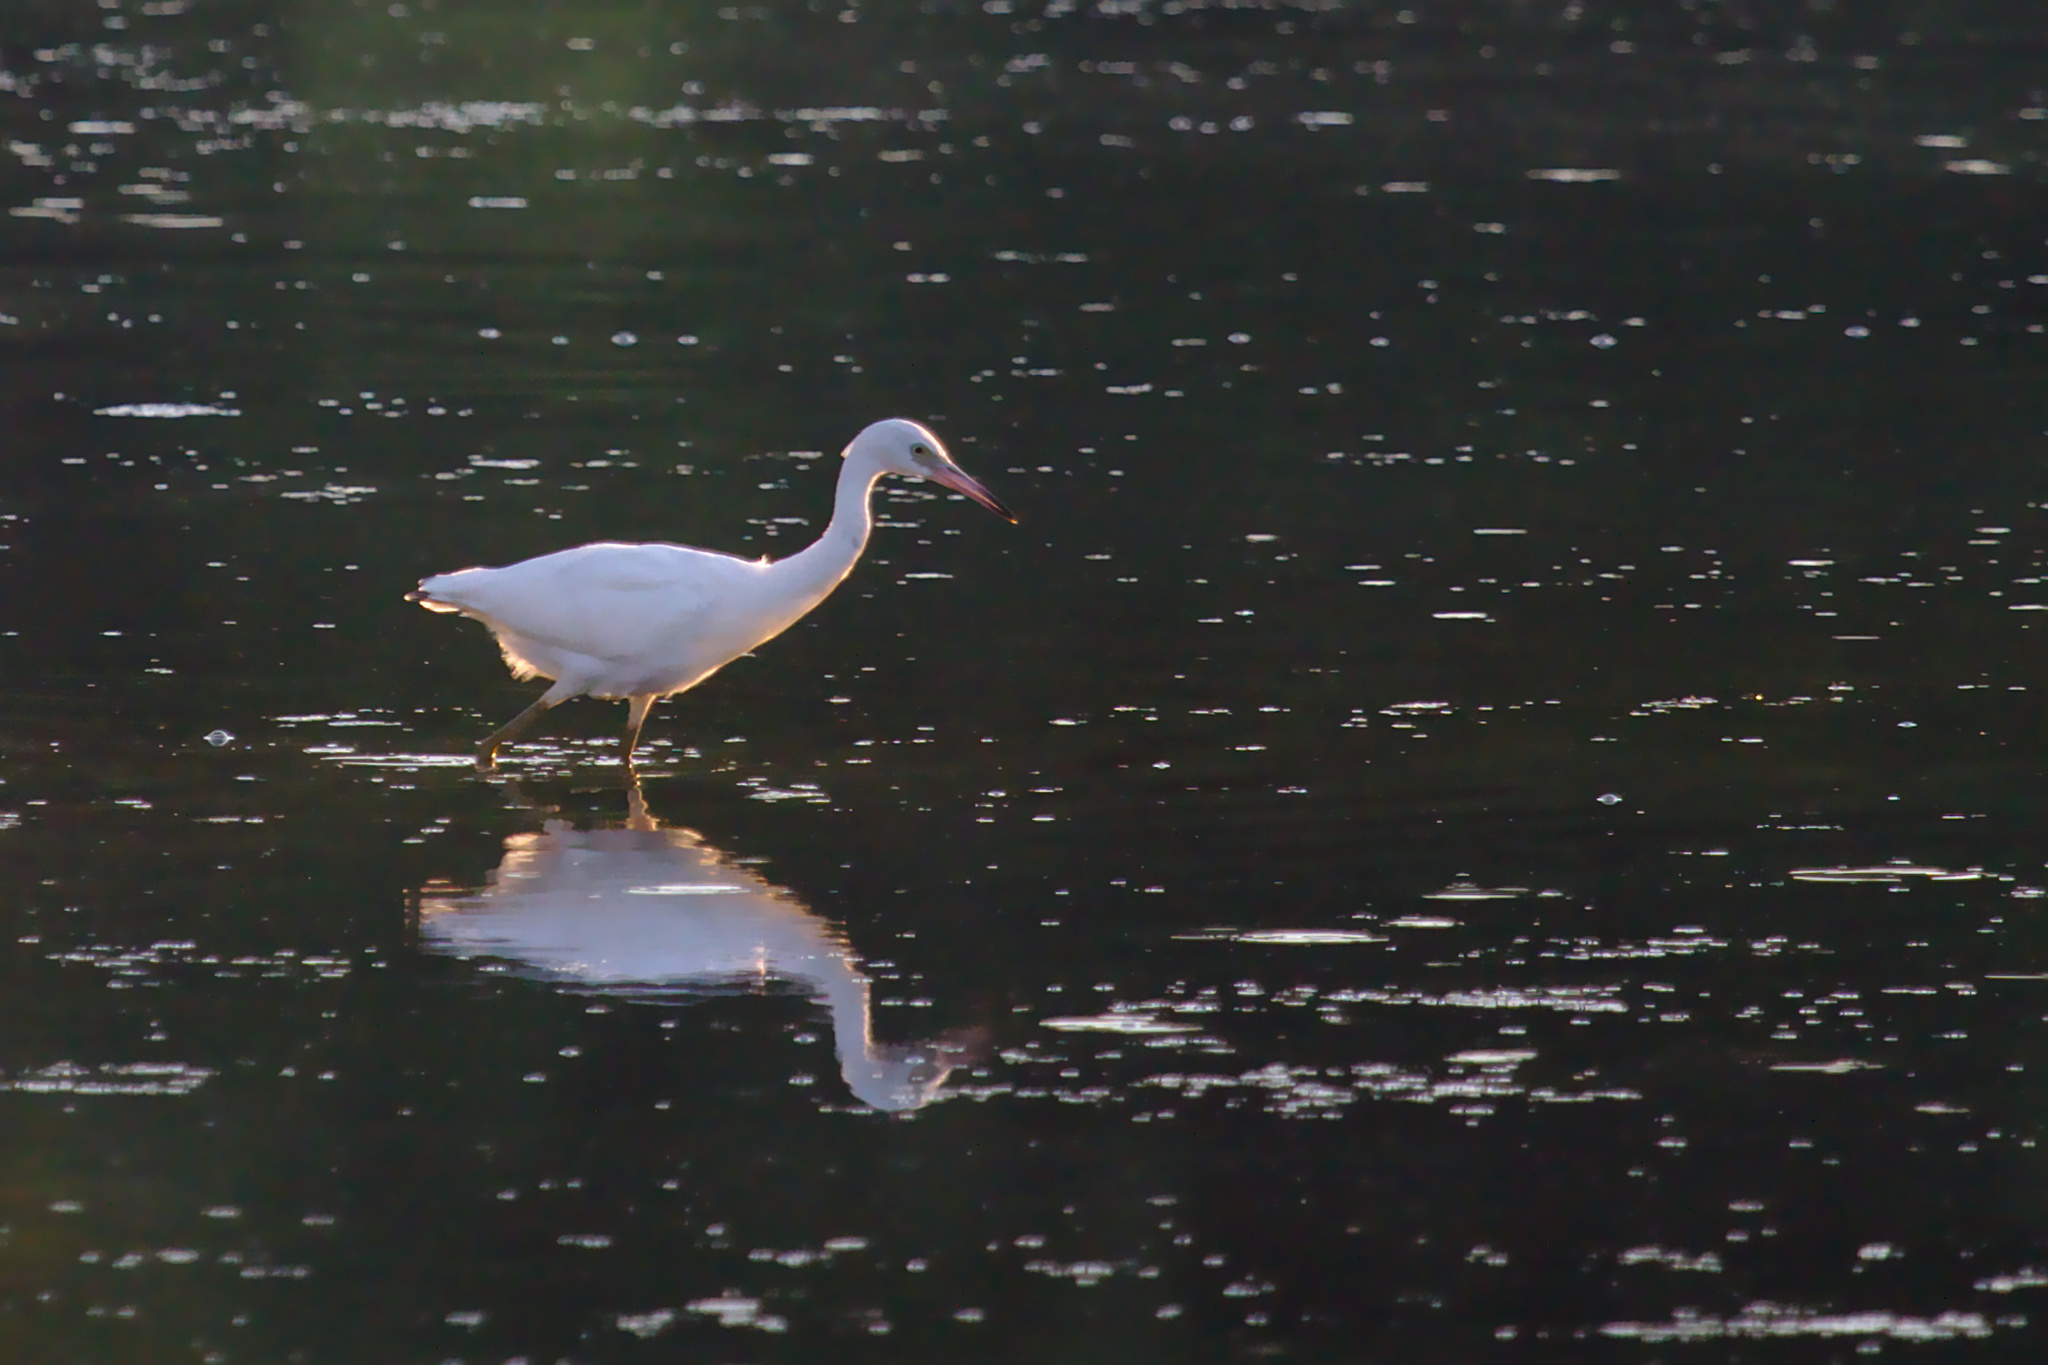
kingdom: Animalia
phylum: Chordata
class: Aves
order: Pelecaniformes
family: Ardeidae
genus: Egretta
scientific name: Egretta caerulea
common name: Little blue heron
